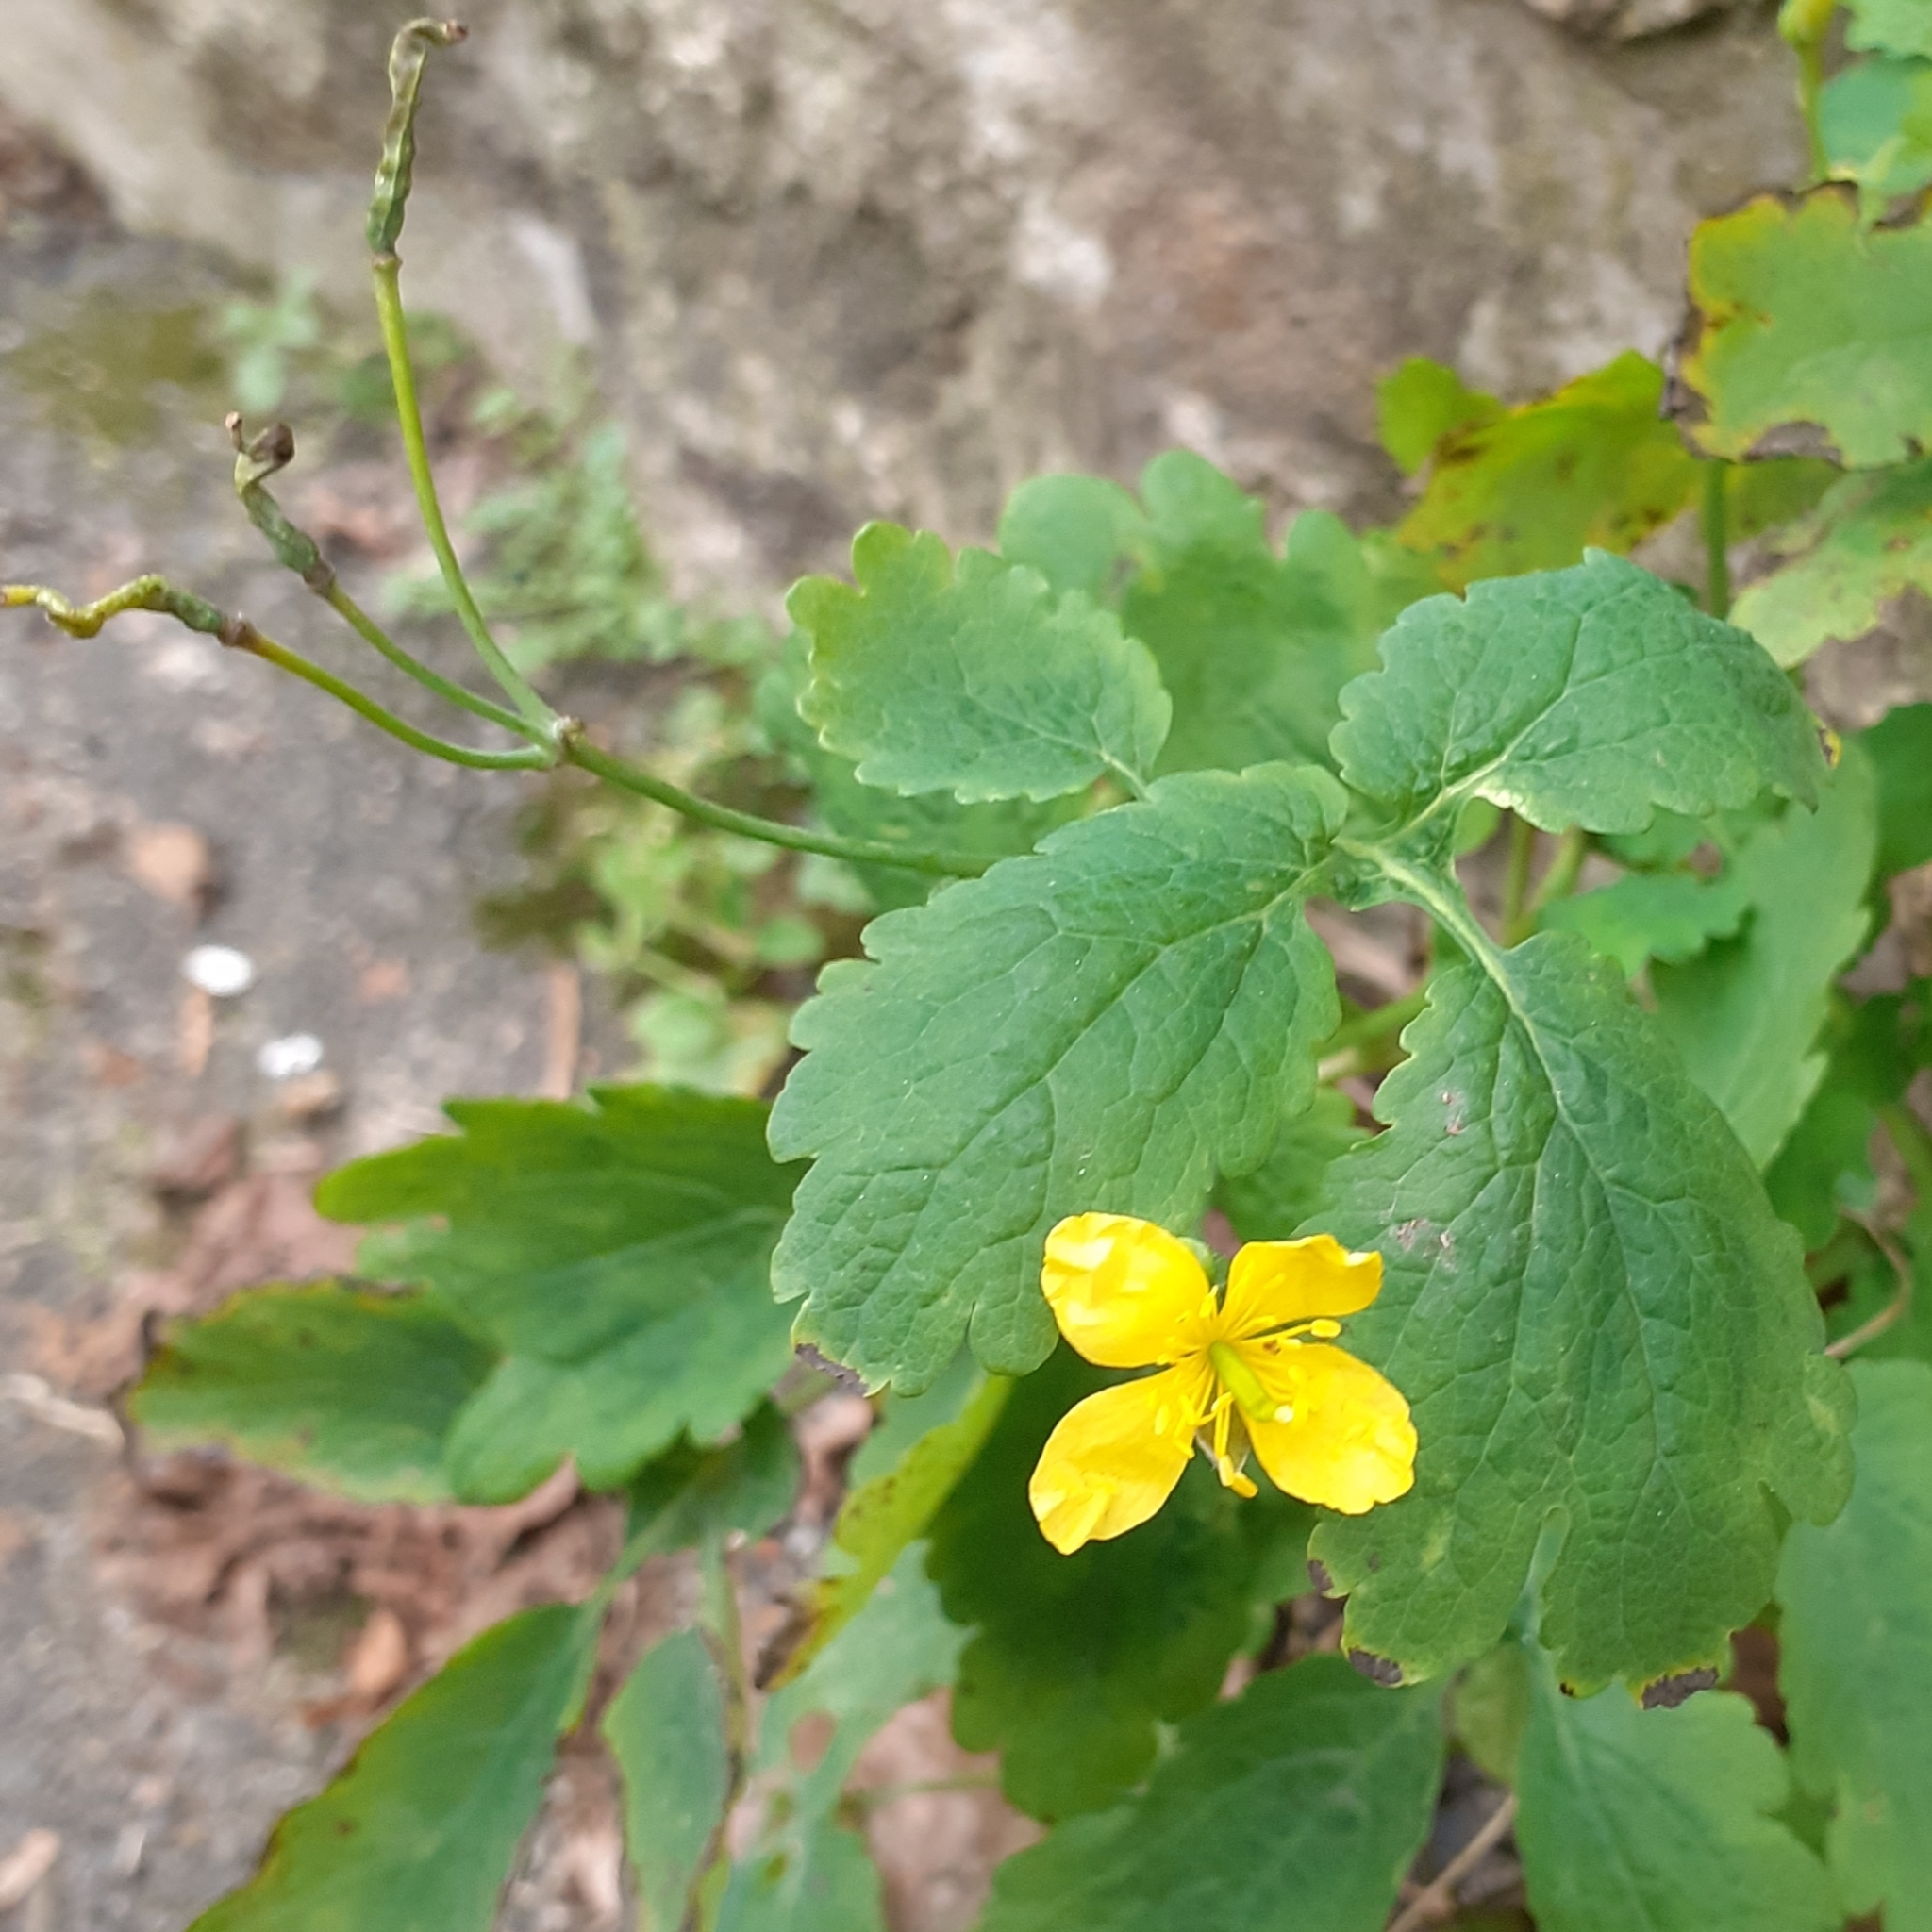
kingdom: Plantae
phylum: Tracheophyta
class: Magnoliopsida
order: Ranunculales
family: Papaveraceae
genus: Chelidonium
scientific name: Chelidonium majus
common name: Greater celandine
